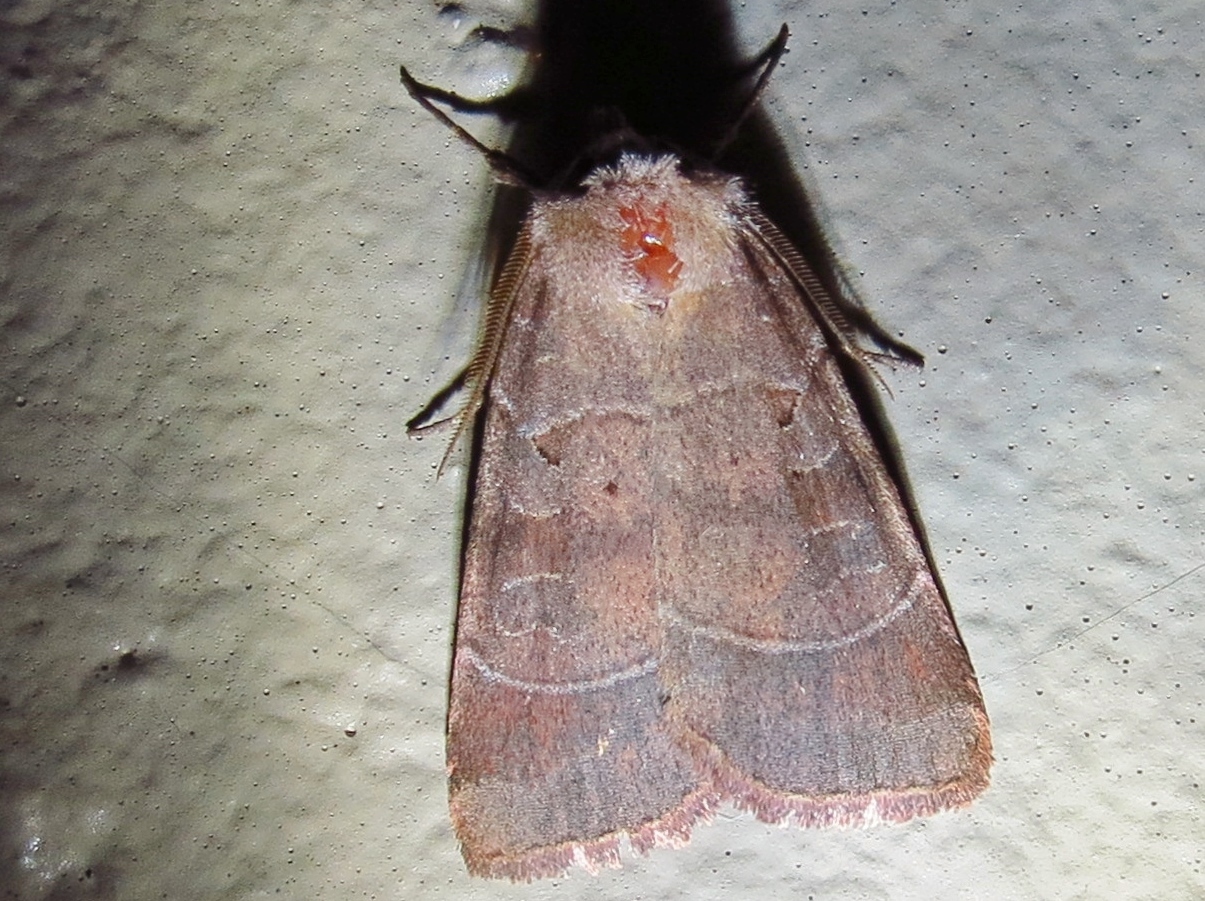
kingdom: Animalia
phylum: Arthropoda
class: Insecta
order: Lepidoptera
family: Noctuidae
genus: Agnorisma
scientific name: Agnorisma badinodis
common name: Pale-banded dart
